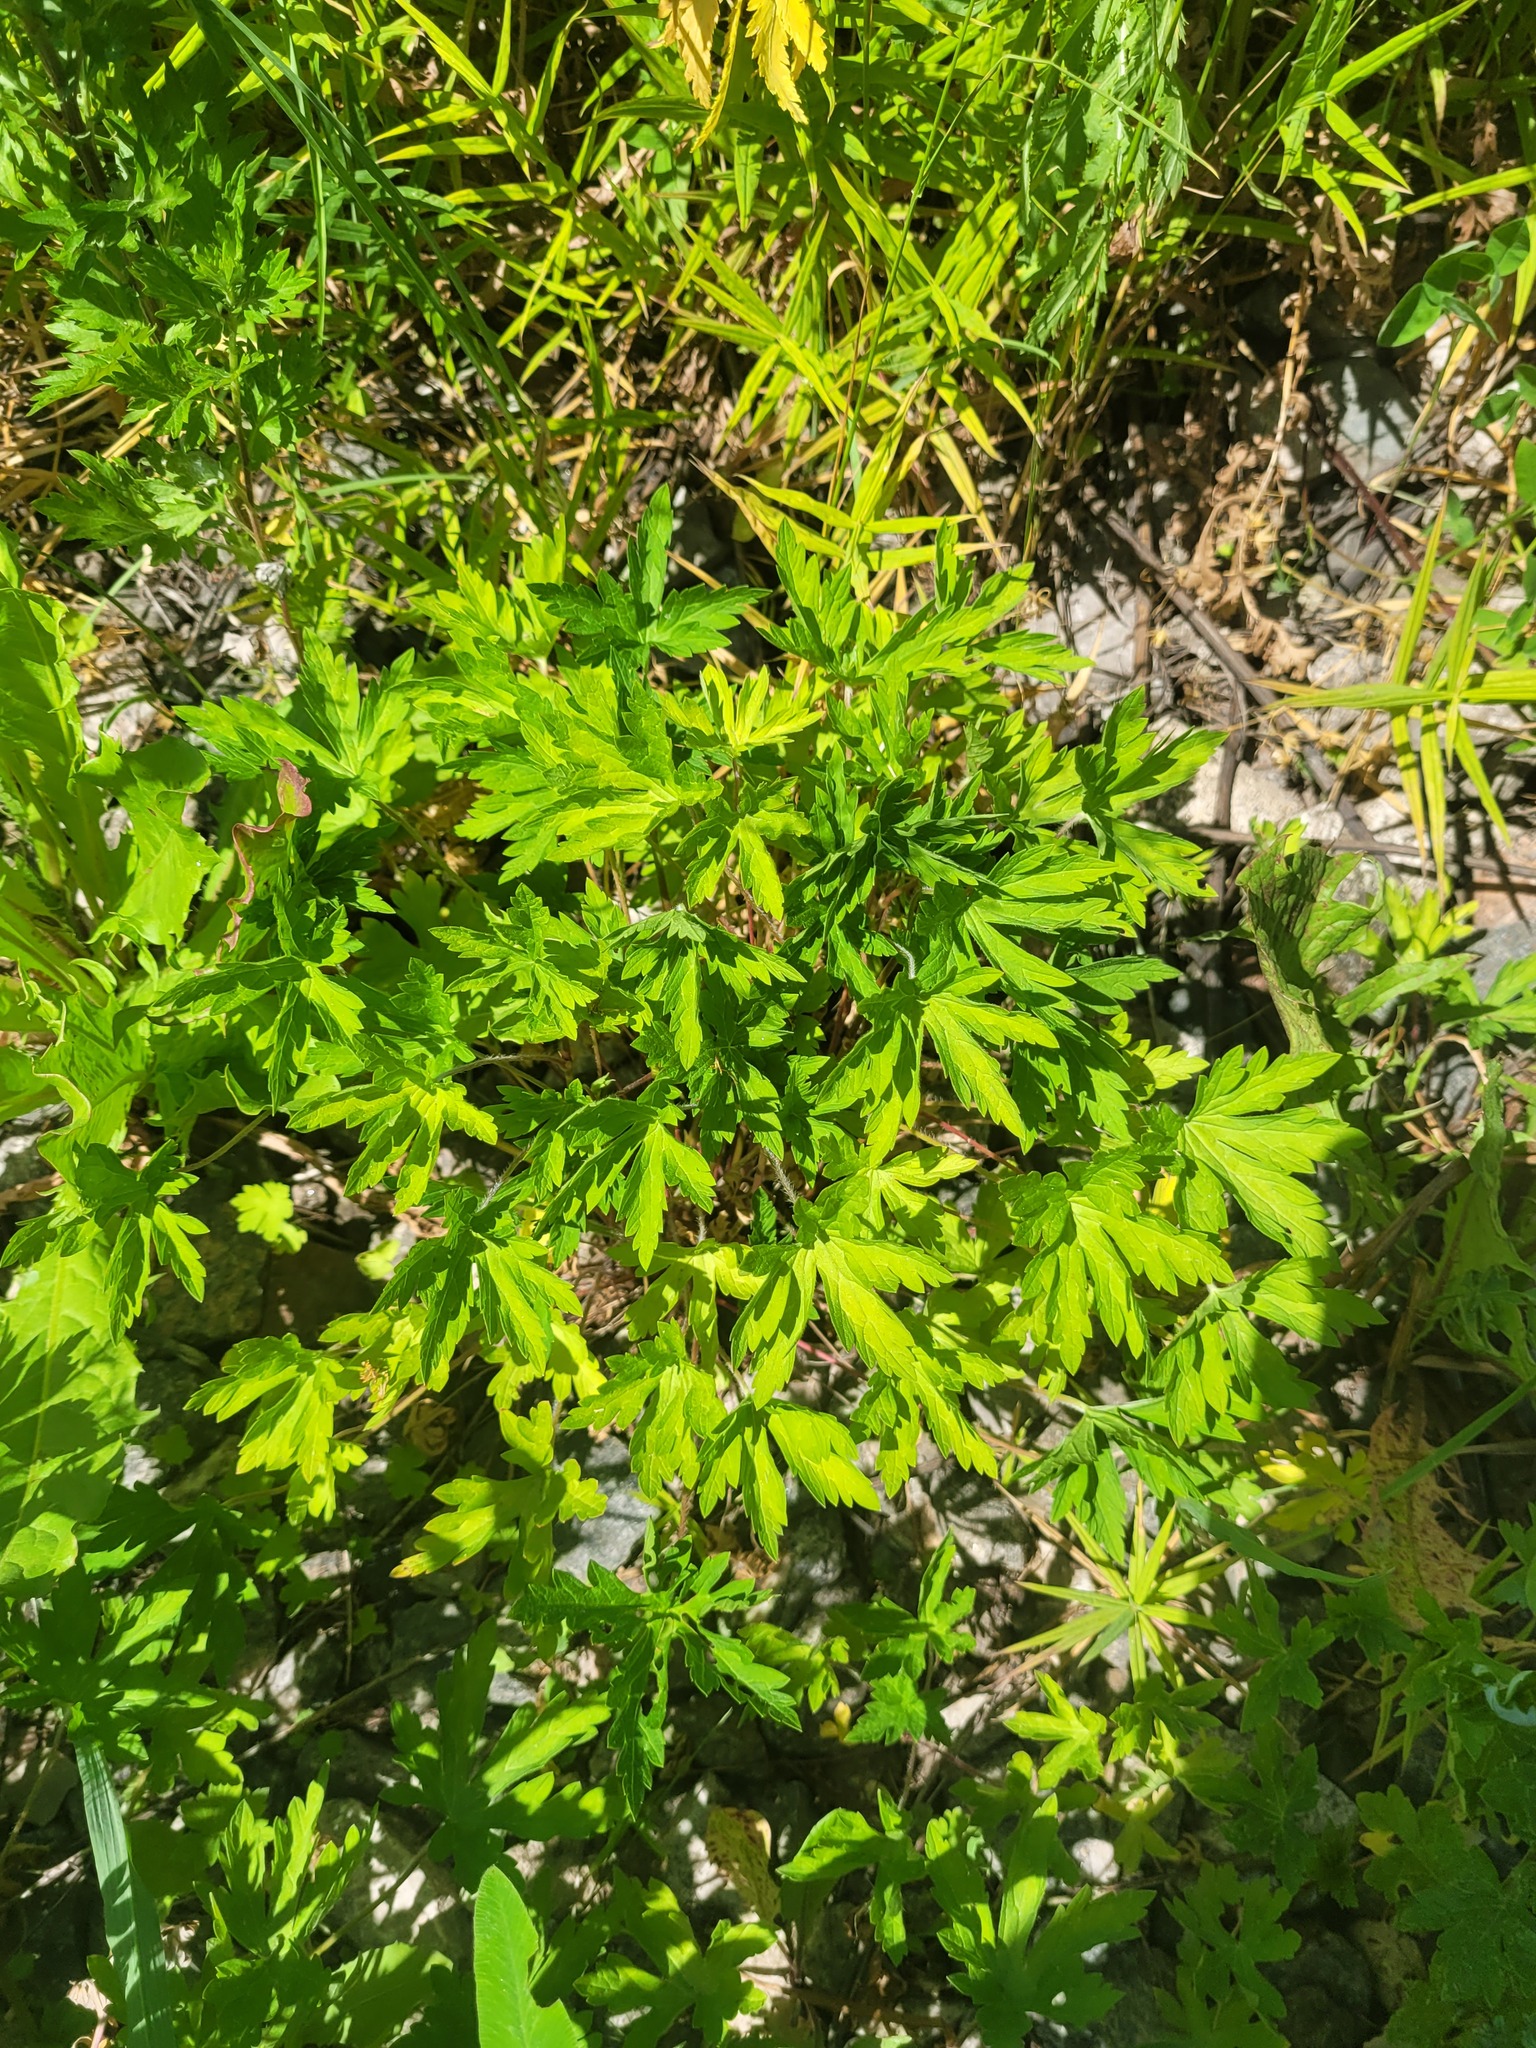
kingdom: Plantae
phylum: Tracheophyta
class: Magnoliopsida
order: Geraniales
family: Geraniaceae
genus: Geranium
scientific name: Geranium sibiricum
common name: Siberian crane's-bill
